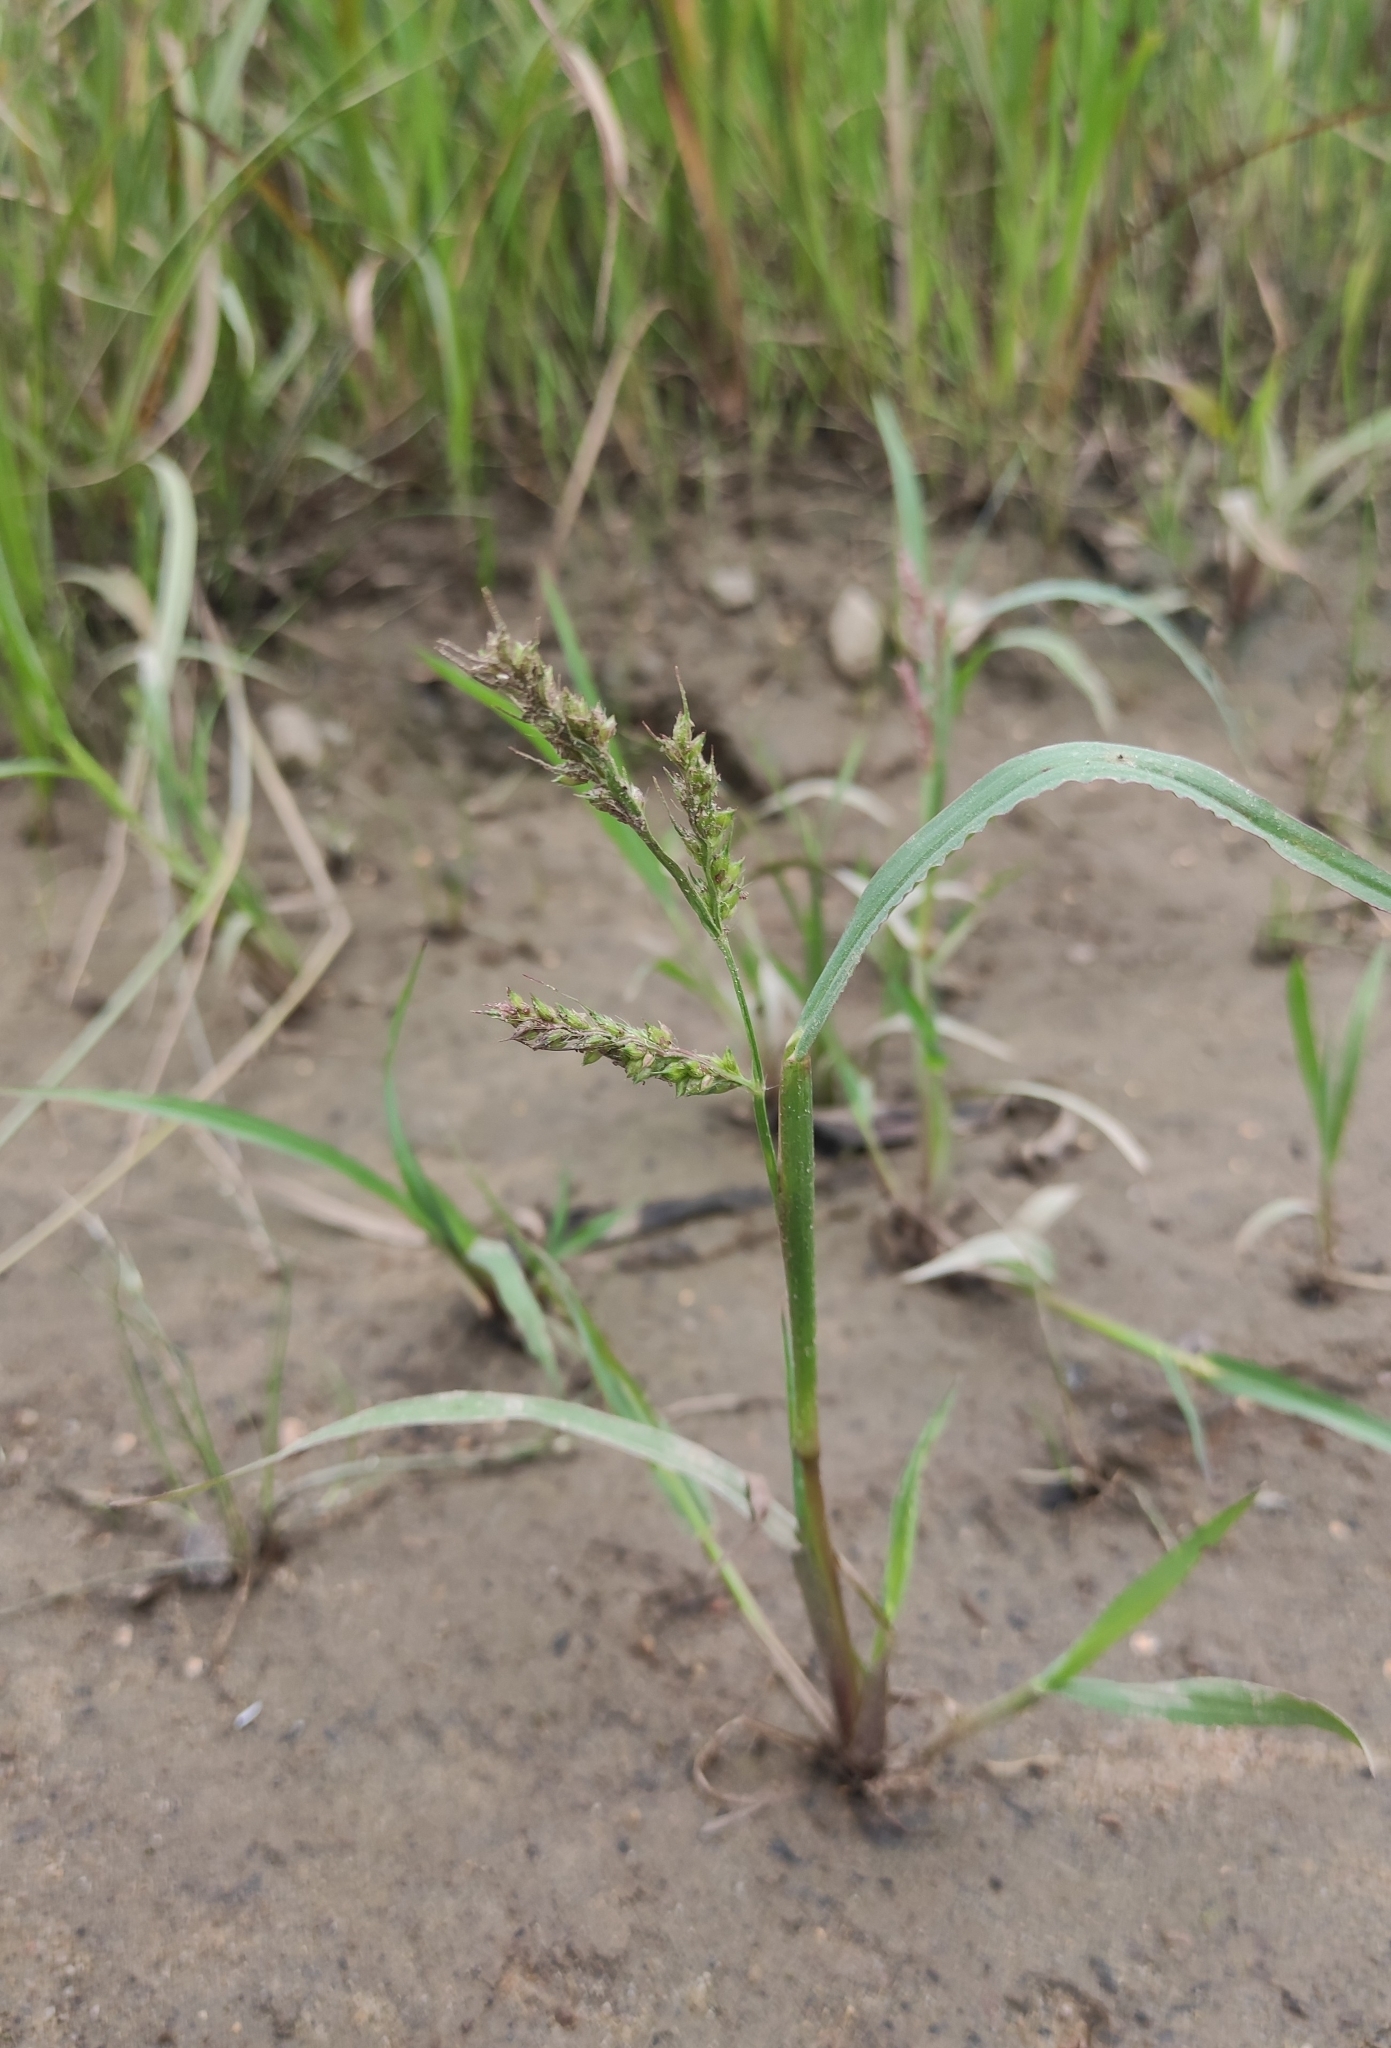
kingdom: Plantae
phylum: Tracheophyta
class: Liliopsida
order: Poales
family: Poaceae
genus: Echinochloa
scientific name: Echinochloa crus-galli
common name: Cockspur
